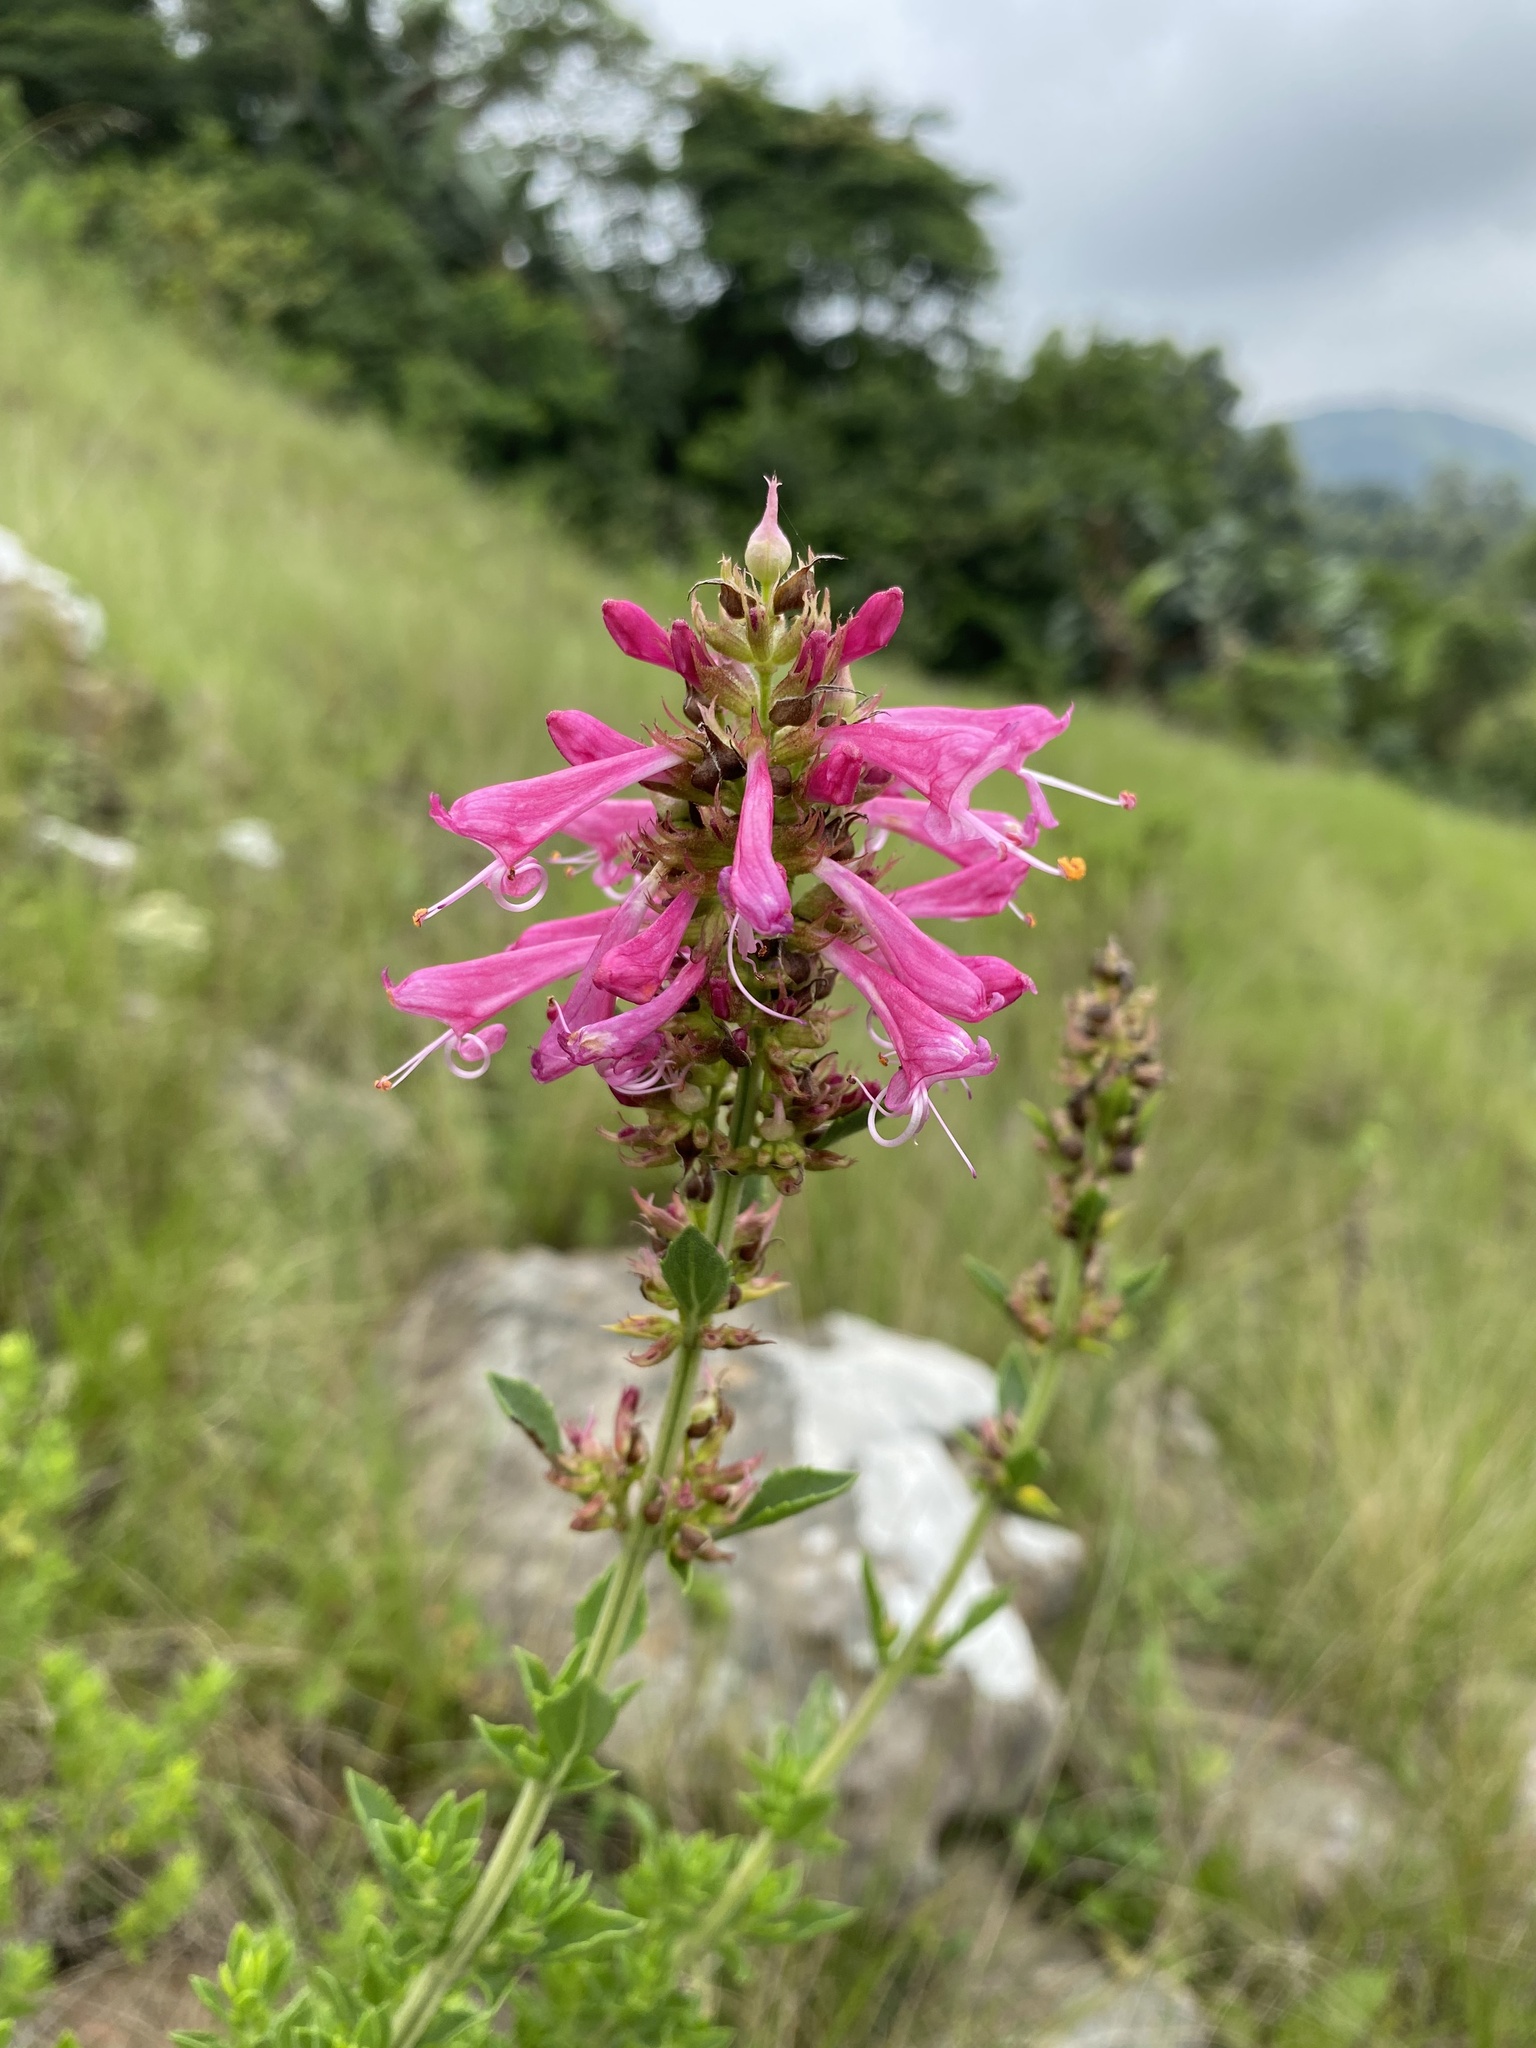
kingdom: Plantae
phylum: Tracheophyta
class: Magnoliopsida
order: Lamiales
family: Lamiaceae
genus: Syncolostemon
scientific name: Syncolostemon densiflorus
